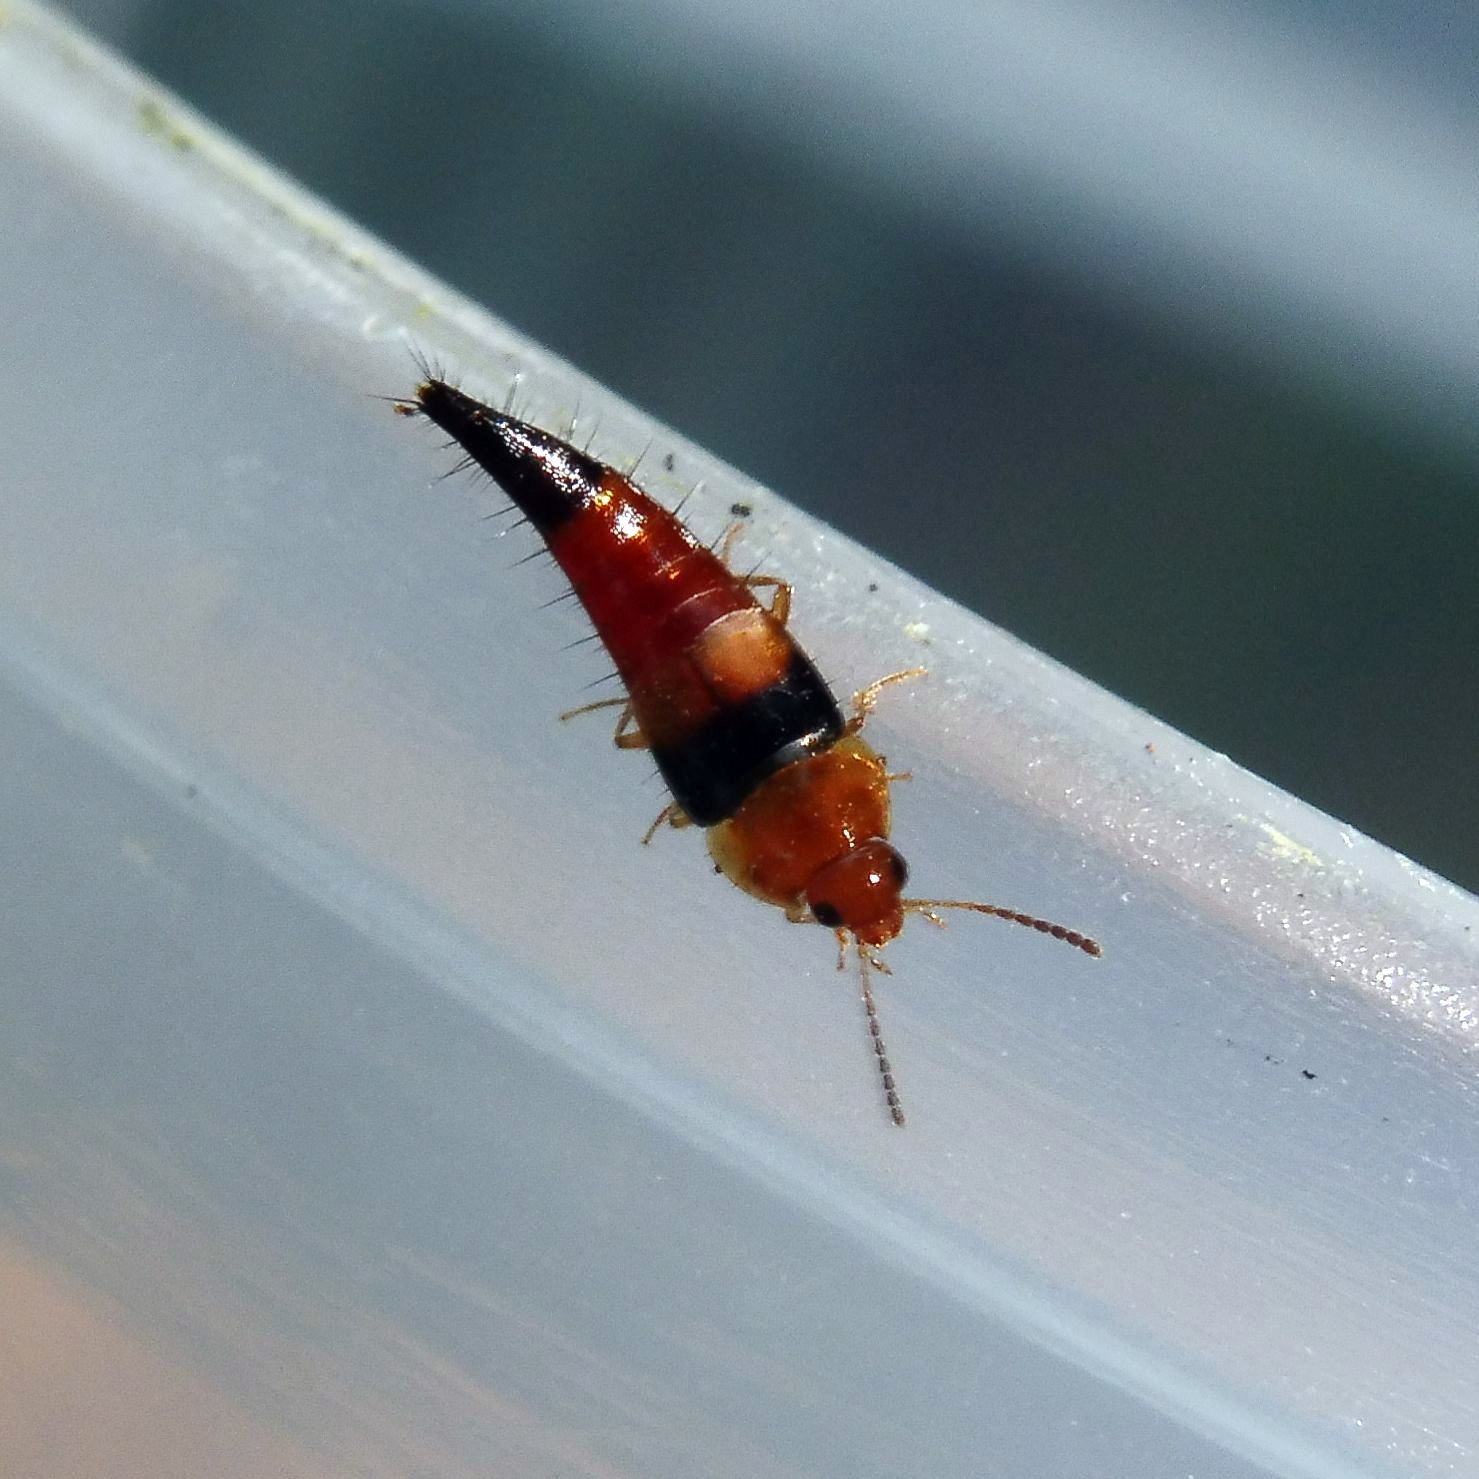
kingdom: Animalia
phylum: Arthropoda
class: Insecta
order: Coleoptera
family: Staphylinidae
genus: Tachyporus
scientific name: Tachyporus obtusus
